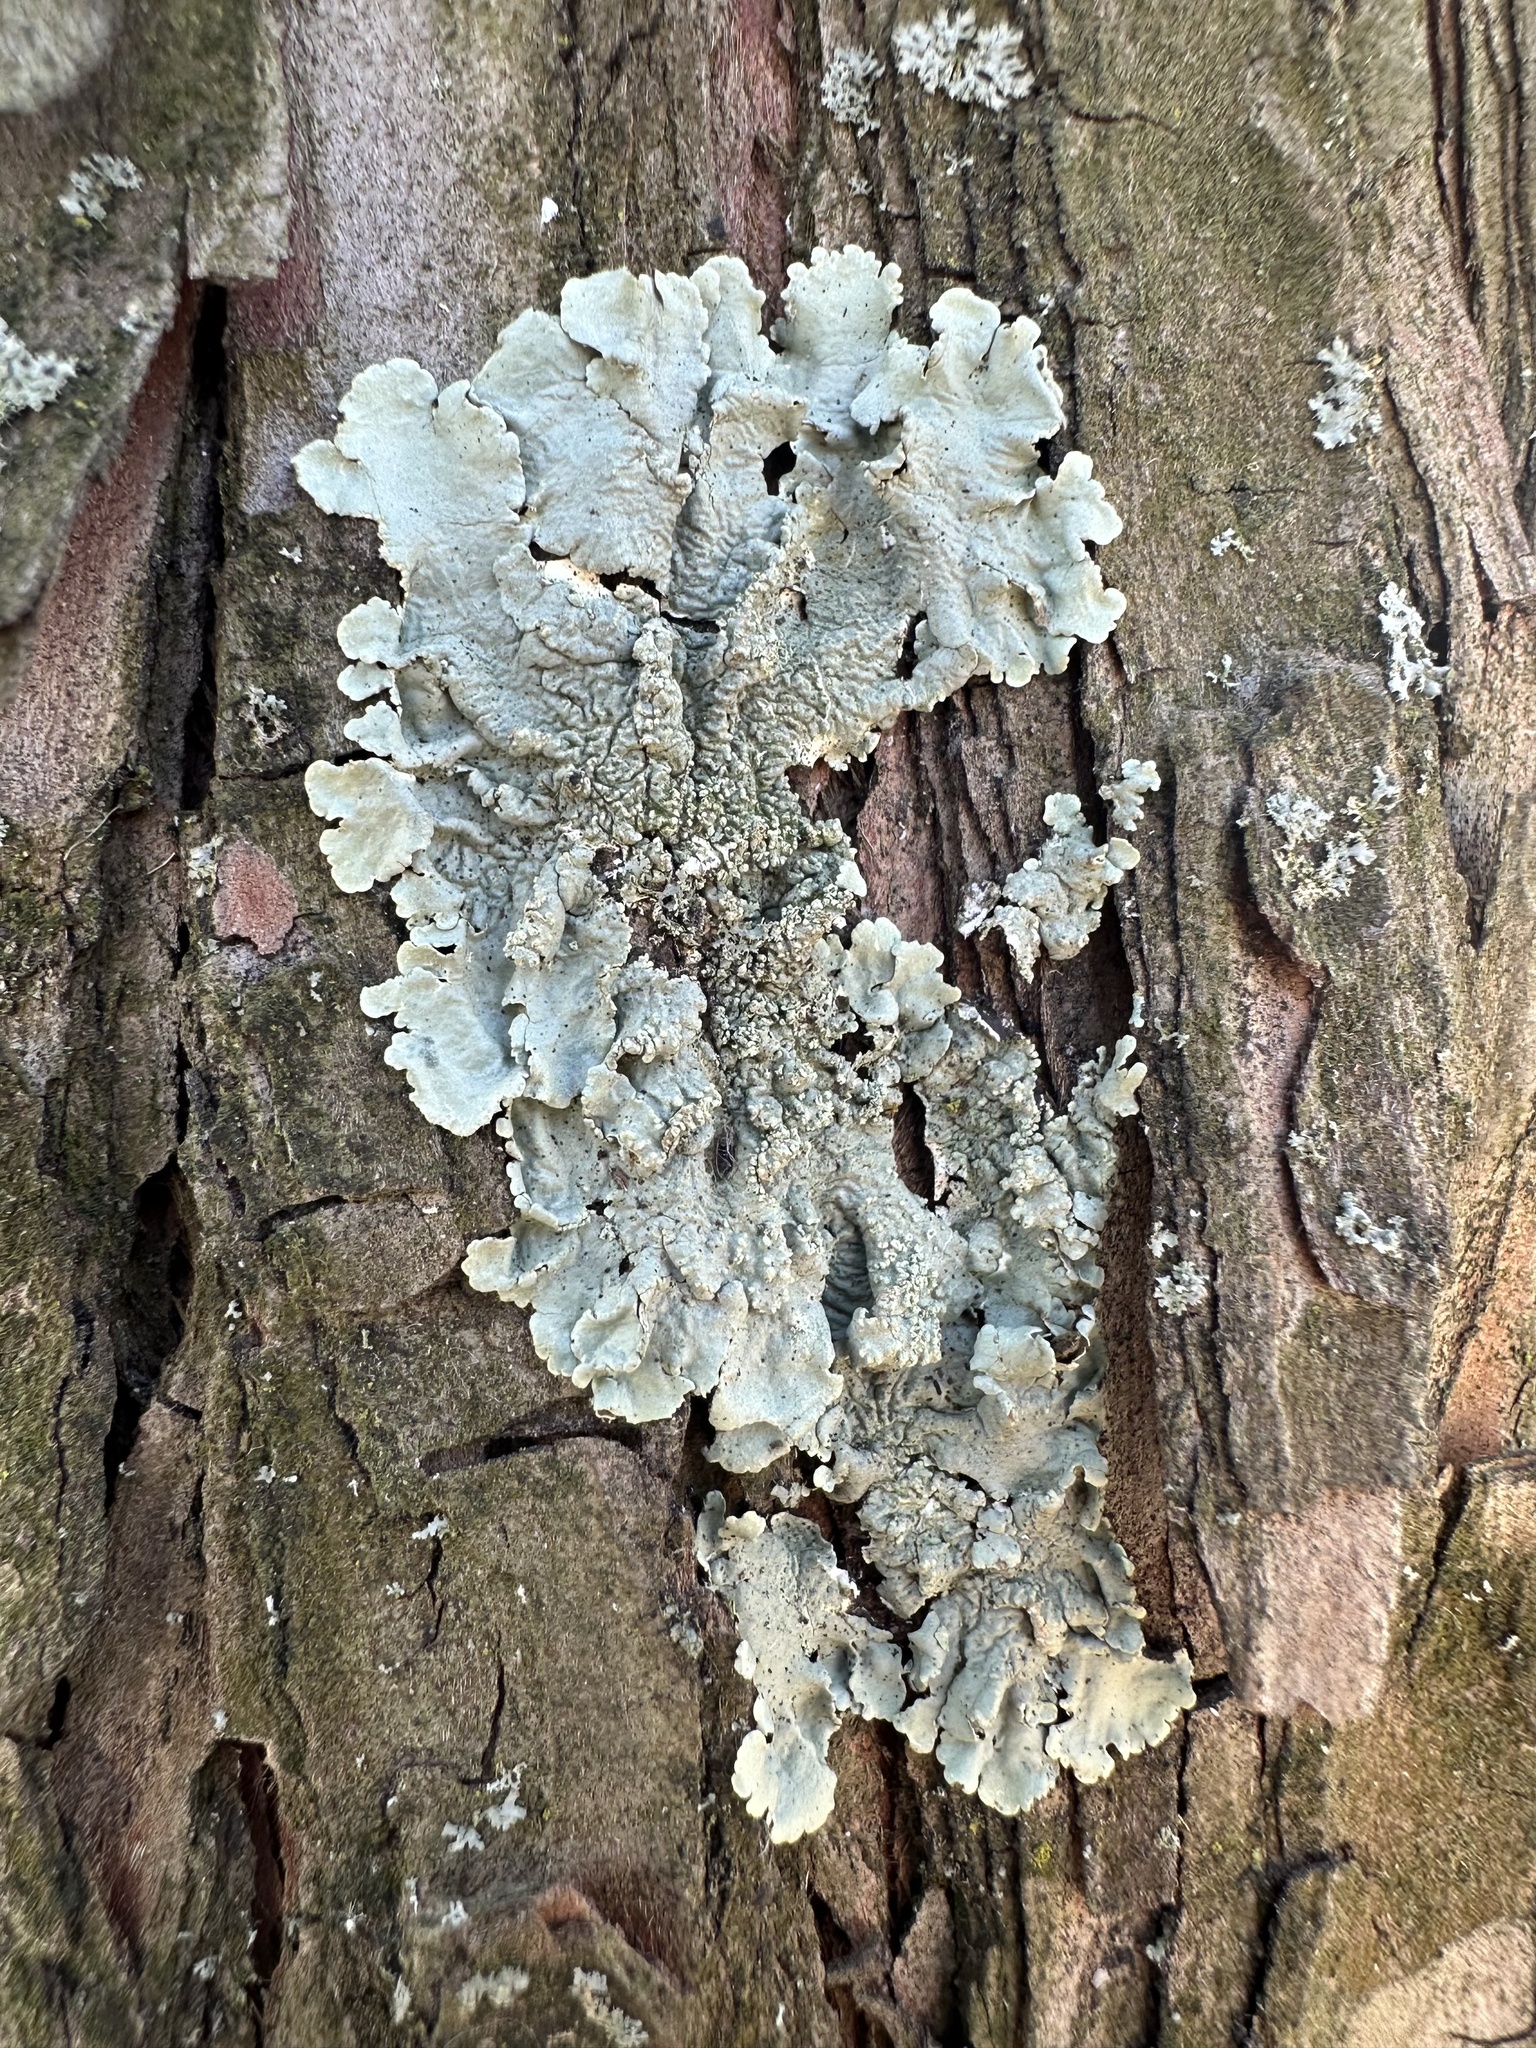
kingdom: Fungi
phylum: Ascomycota
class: Lecanoromycetes
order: Lecanorales
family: Parmeliaceae
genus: Flavoparmelia
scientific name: Flavoparmelia caperata
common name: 40-mile per hour lichen
